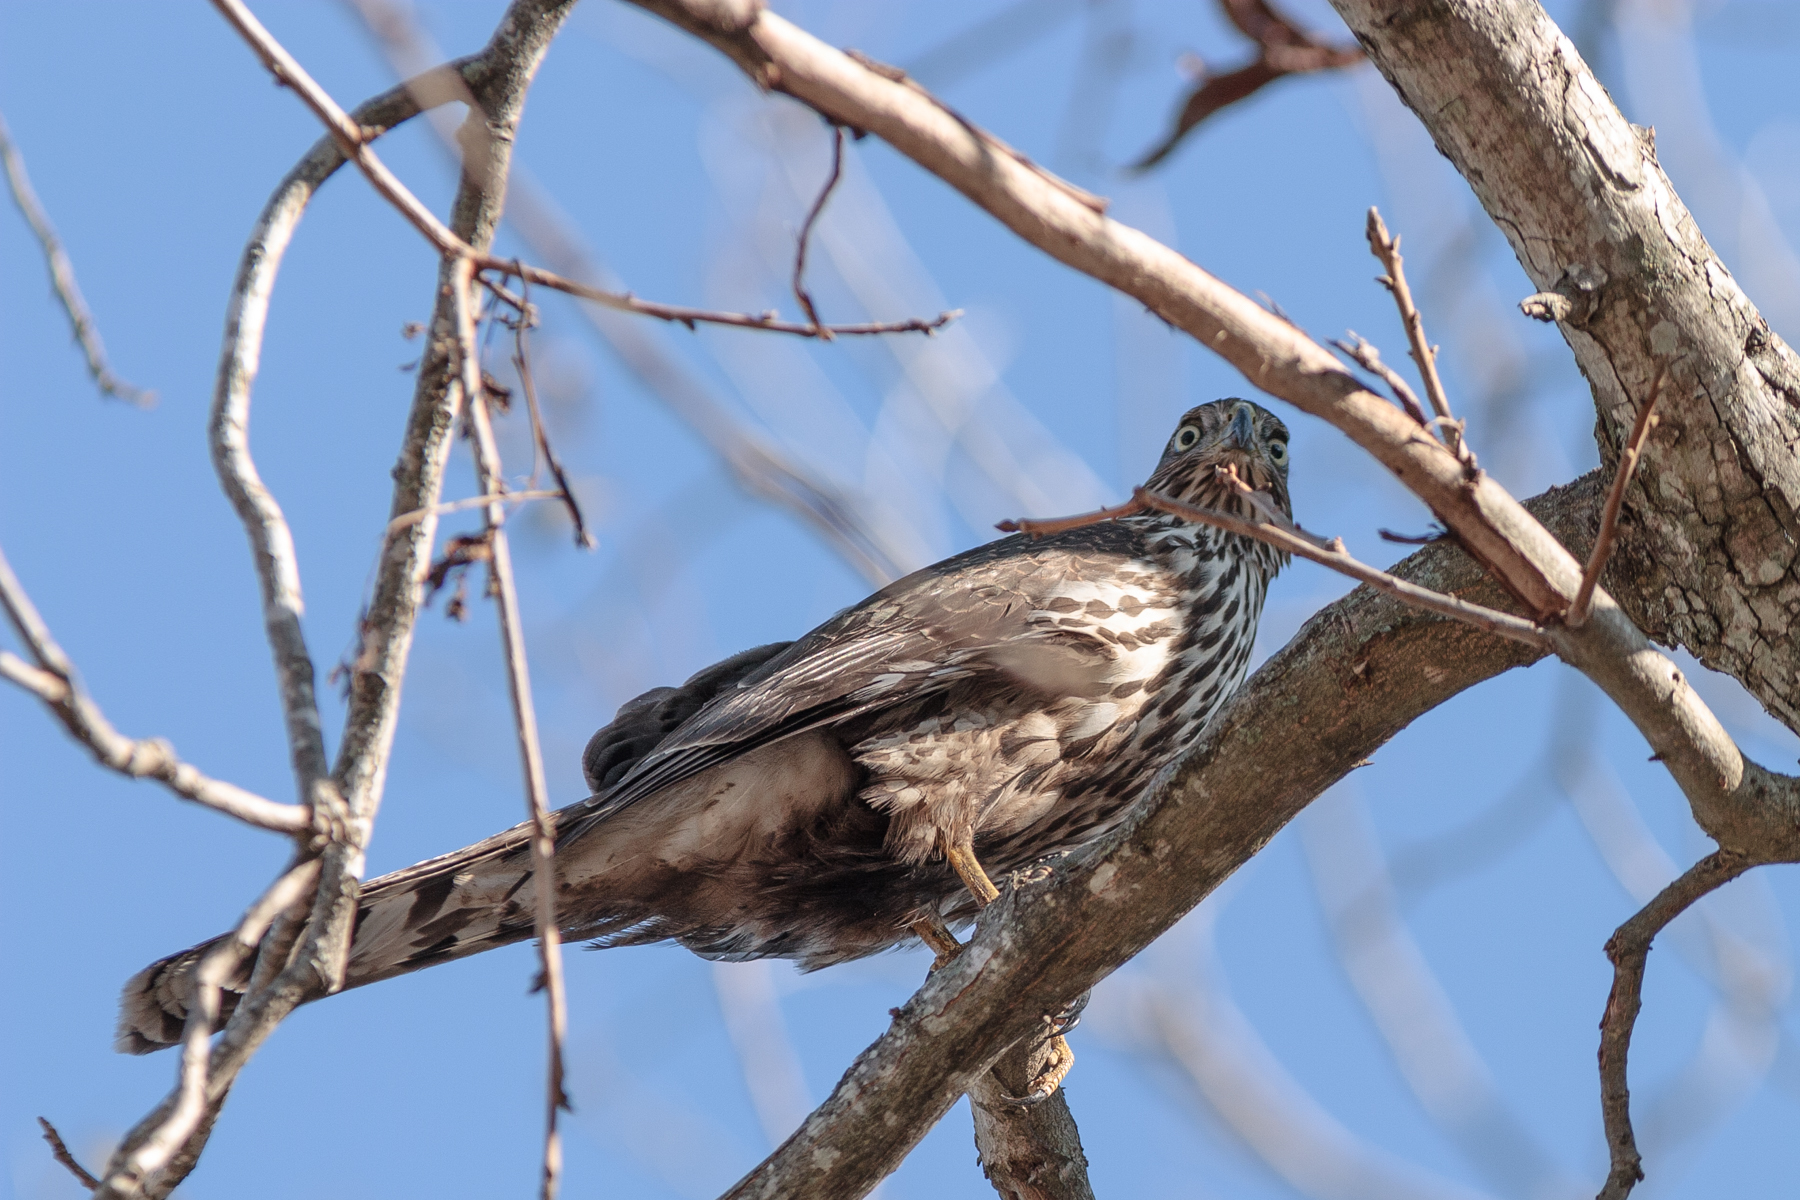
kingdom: Animalia
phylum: Chordata
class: Aves
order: Accipitriformes
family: Accipitridae
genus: Accipiter
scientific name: Accipiter cooperii
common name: Cooper's hawk
